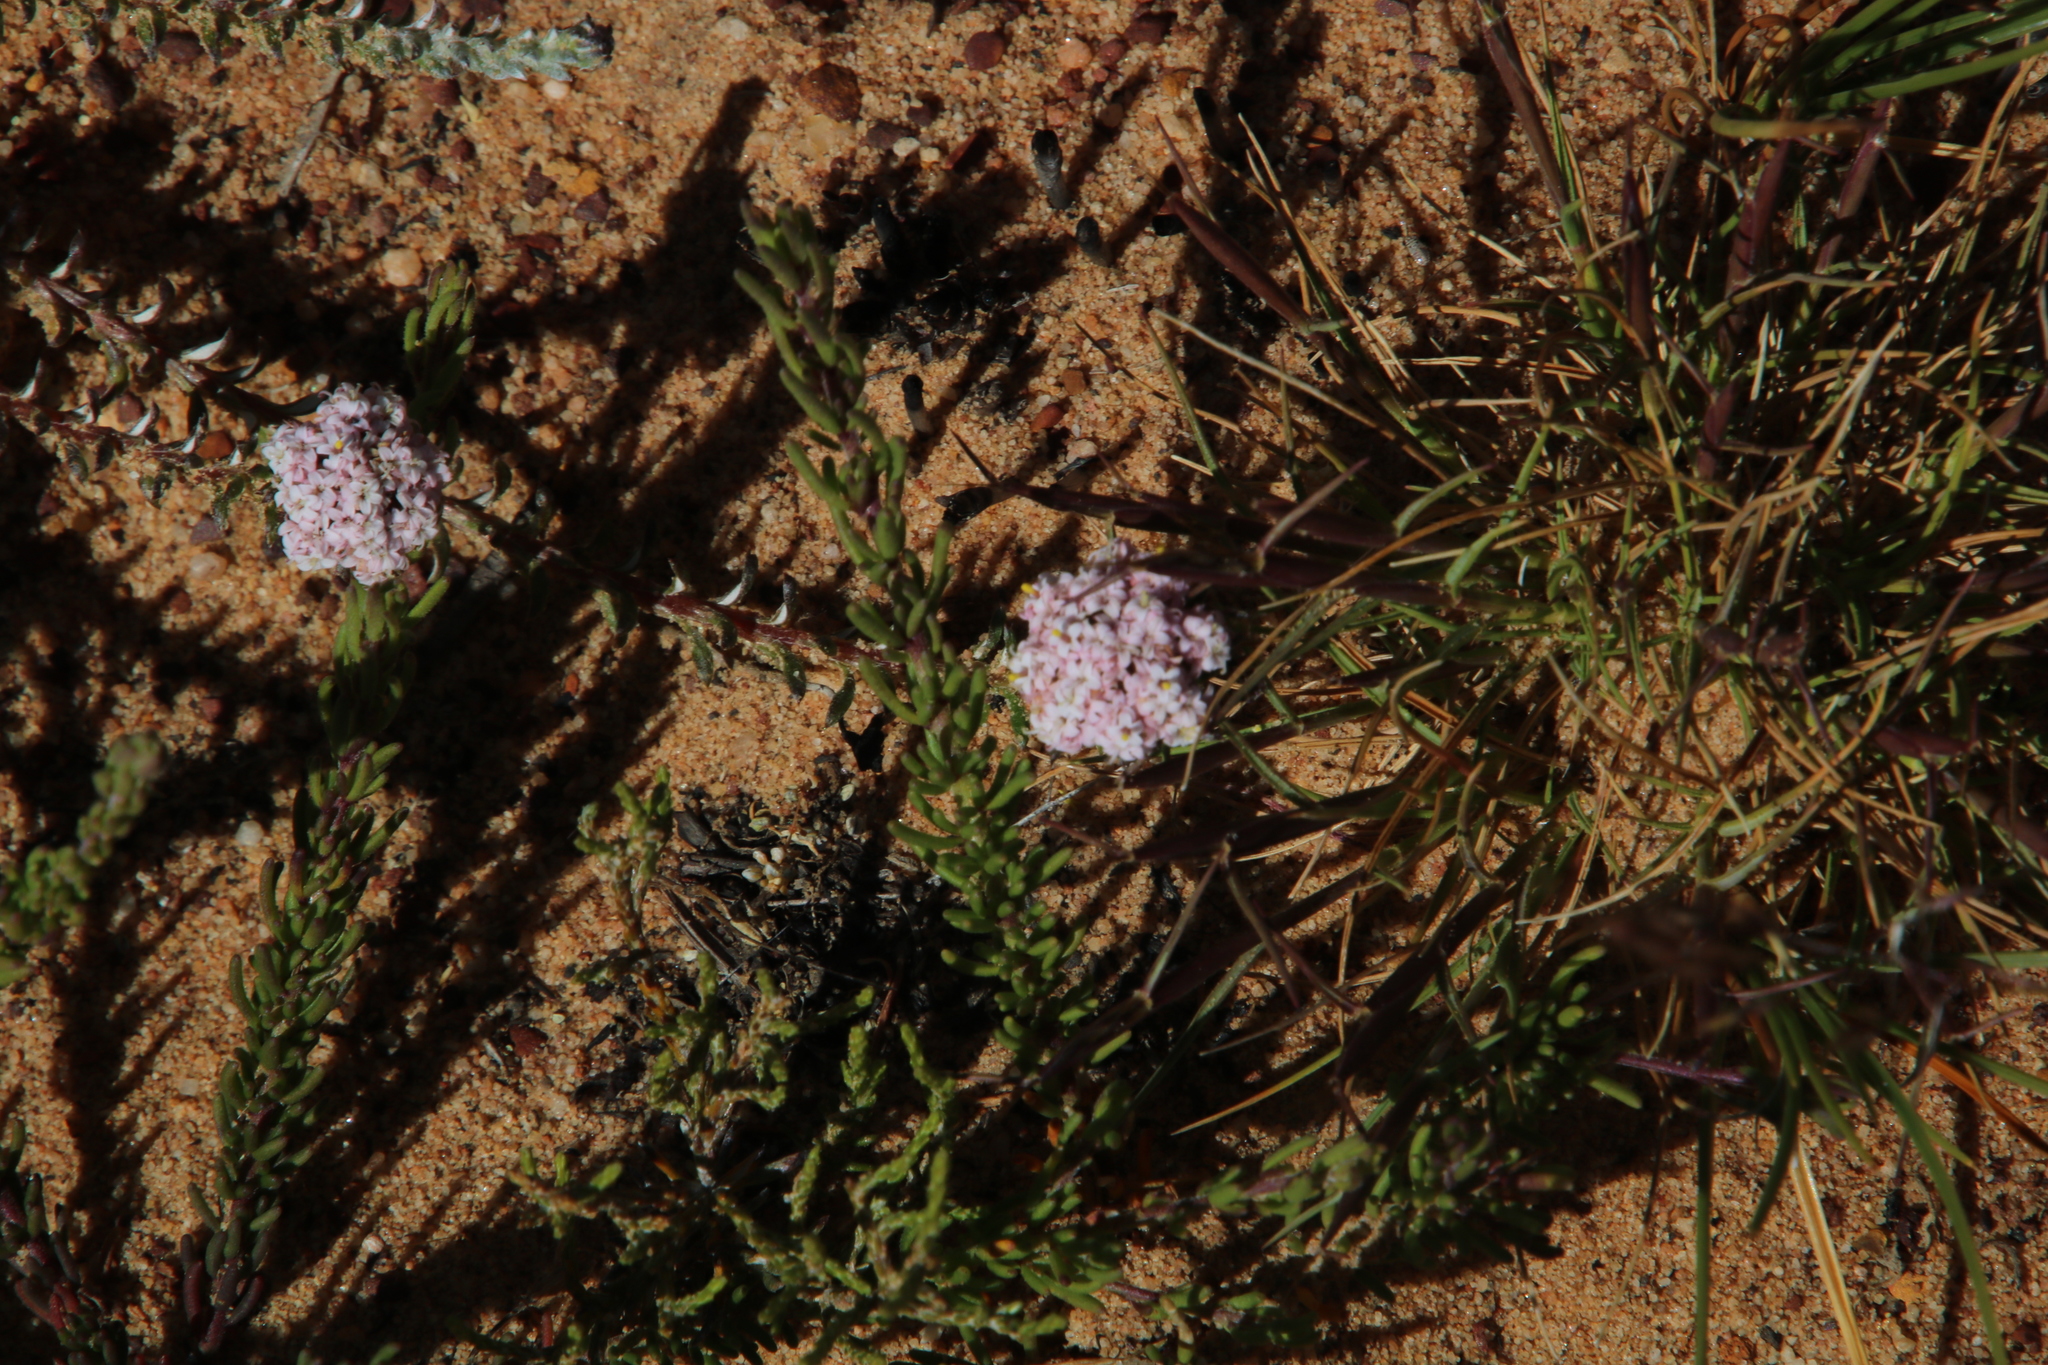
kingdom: Plantae
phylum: Tracheophyta
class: Magnoliopsida
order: Asterales
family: Asteraceae
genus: Elytropappus
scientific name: Elytropappus hispidus
